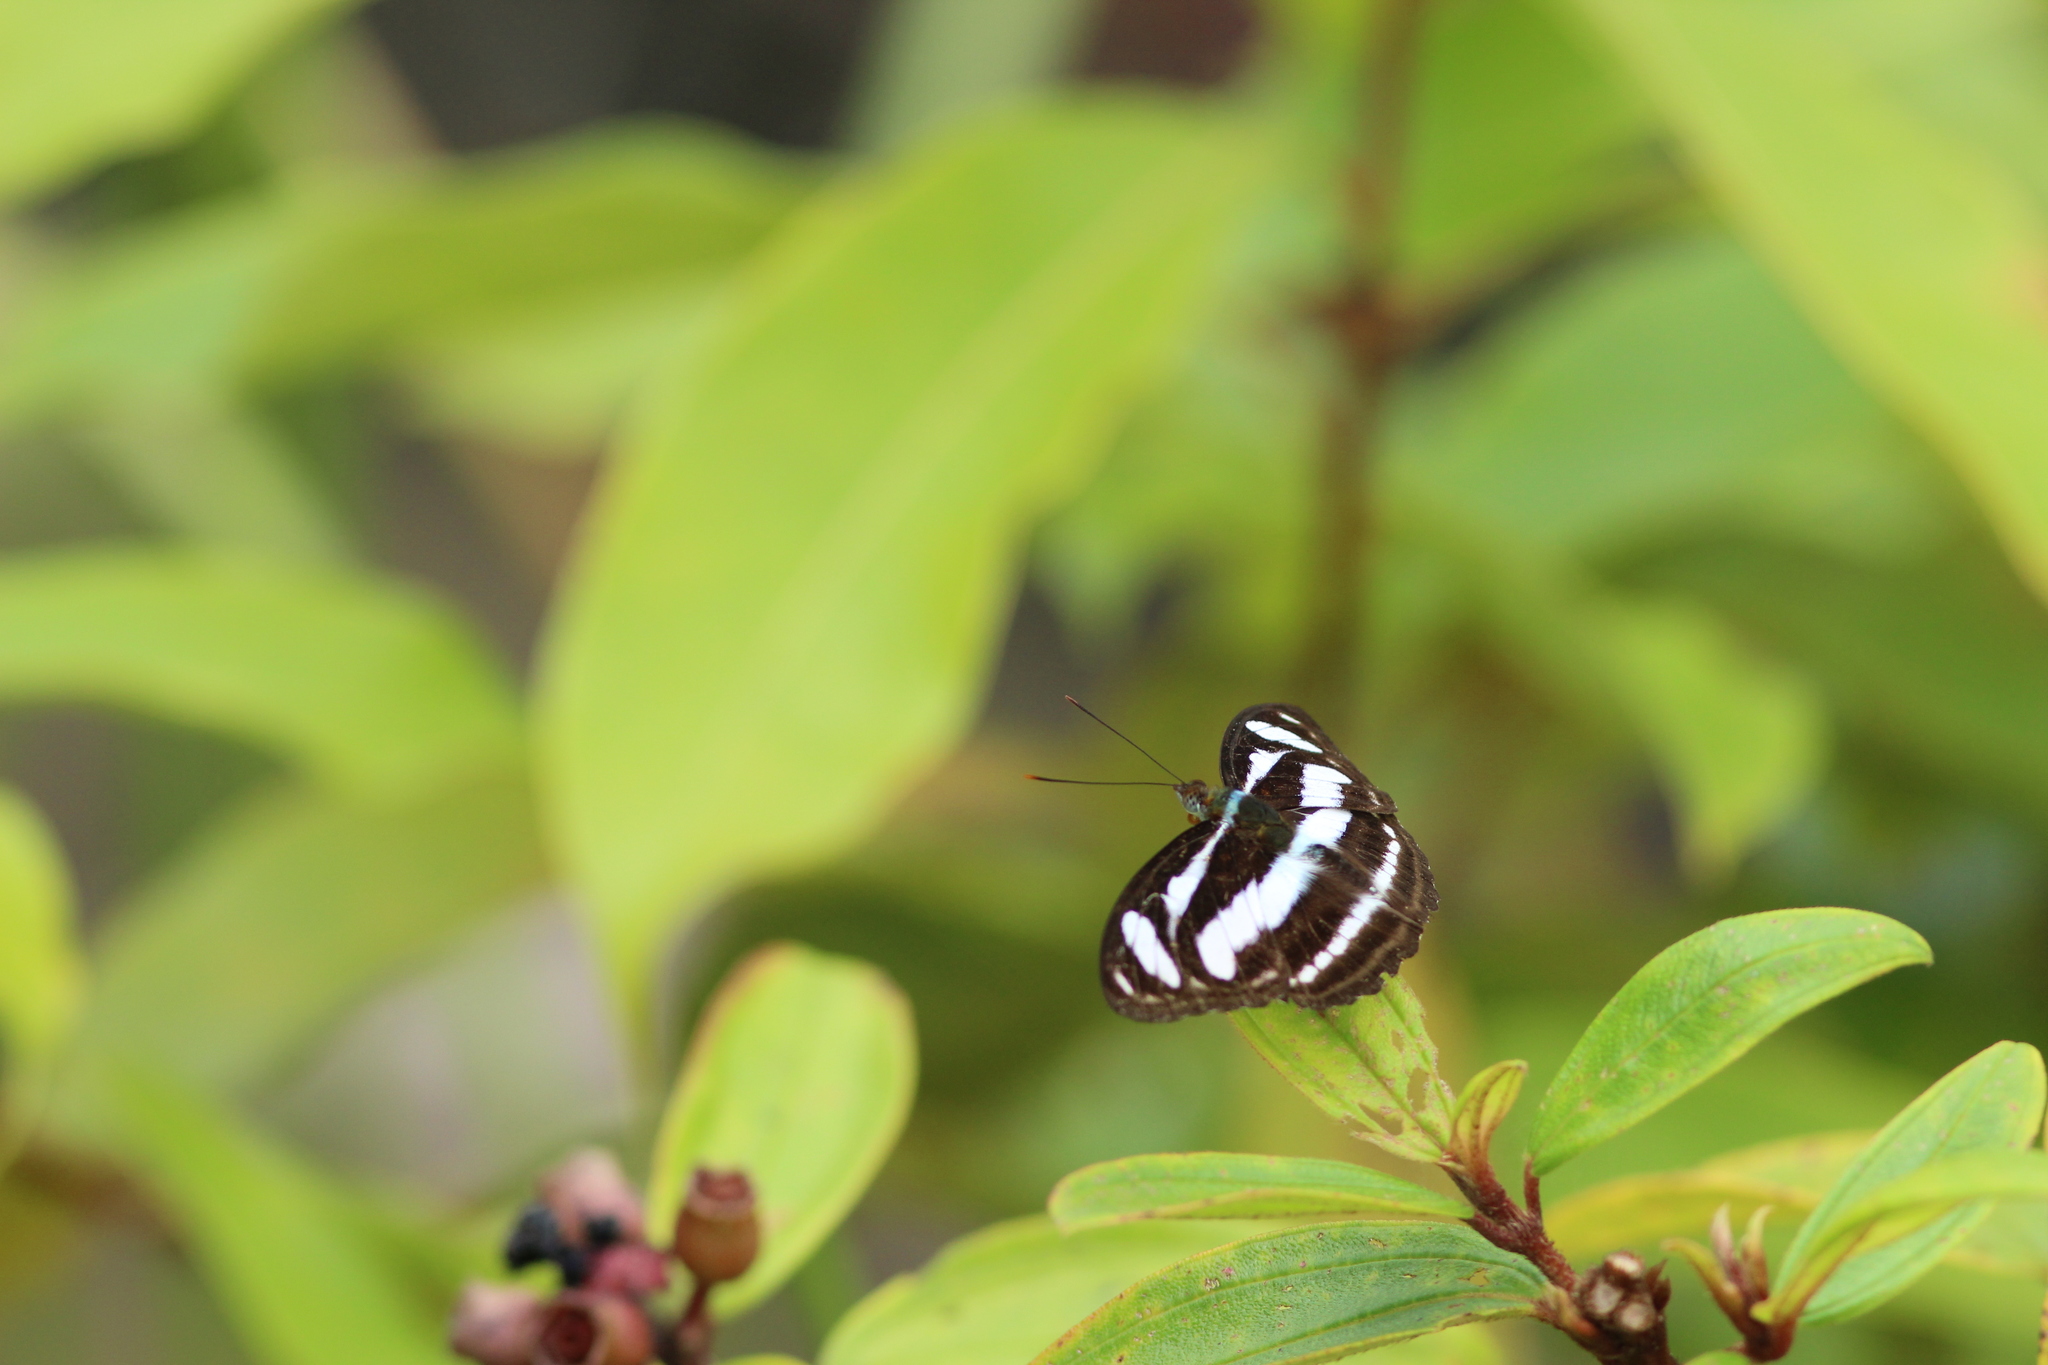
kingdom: Animalia
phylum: Arthropoda
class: Insecta
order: Lepidoptera
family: Nymphalidae
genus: Parathyma
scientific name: Parathyma nefte
